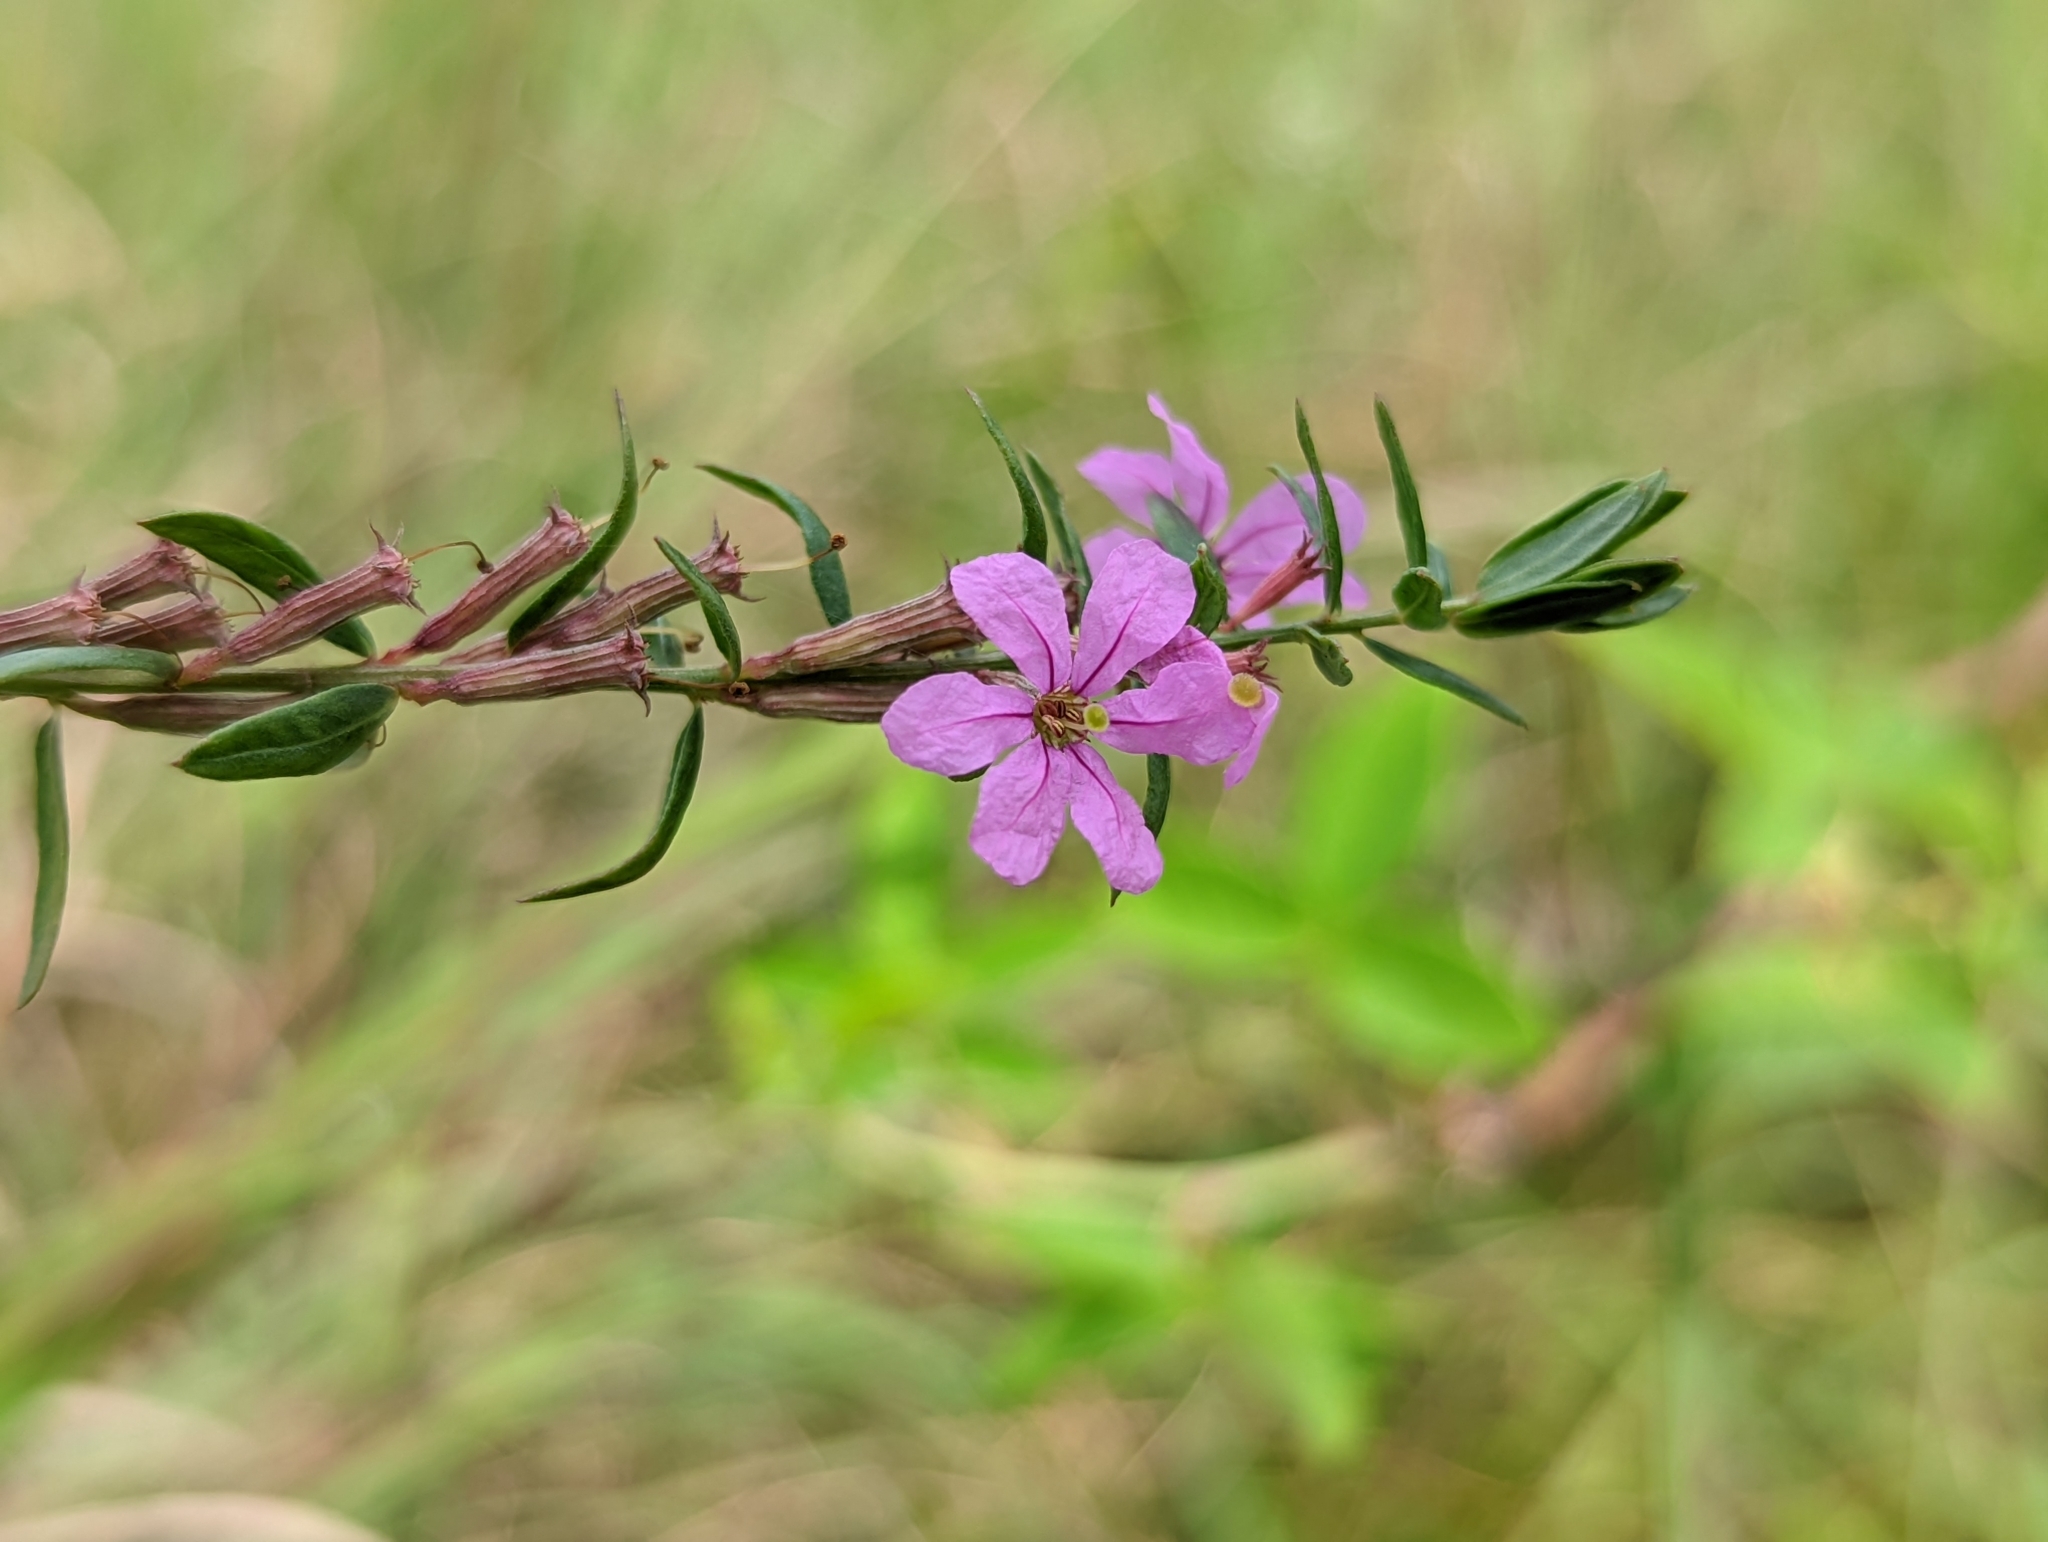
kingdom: Plantae
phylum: Tracheophyta
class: Magnoliopsida
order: Myrtales
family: Lythraceae
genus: Lythrum
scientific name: Lythrum alatum
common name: Winged loosestrife
